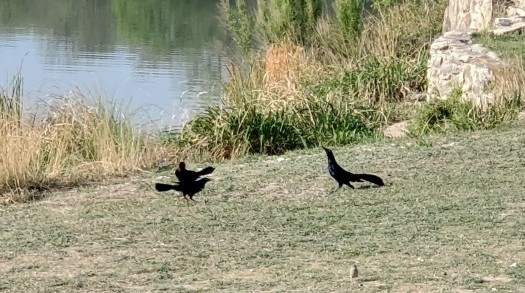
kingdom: Animalia
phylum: Chordata
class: Aves
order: Passeriformes
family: Icteridae
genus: Quiscalus
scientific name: Quiscalus mexicanus
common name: Great-tailed grackle
